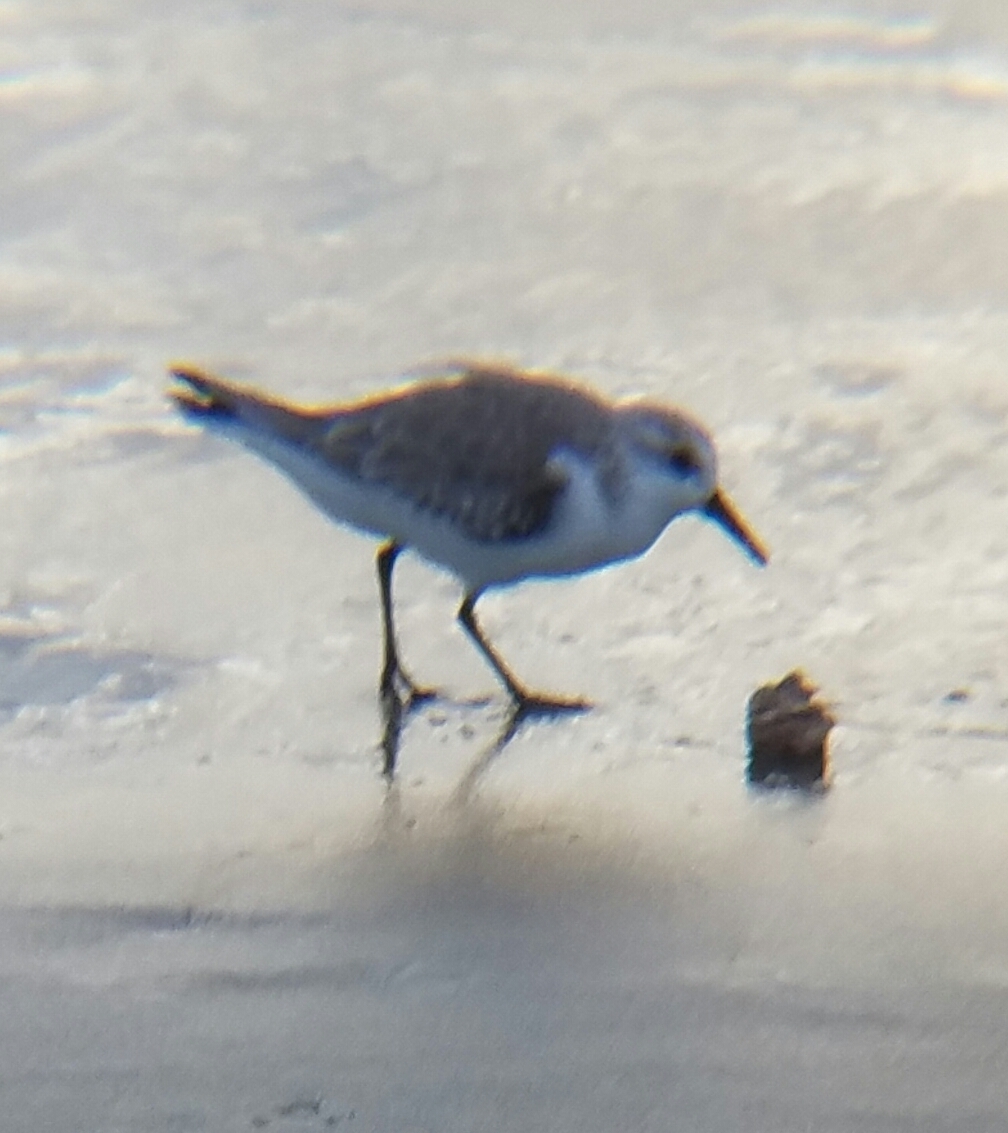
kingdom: Animalia
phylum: Chordata
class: Aves
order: Charadriiformes
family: Scolopacidae
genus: Calidris
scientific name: Calidris alba
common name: Sanderling
